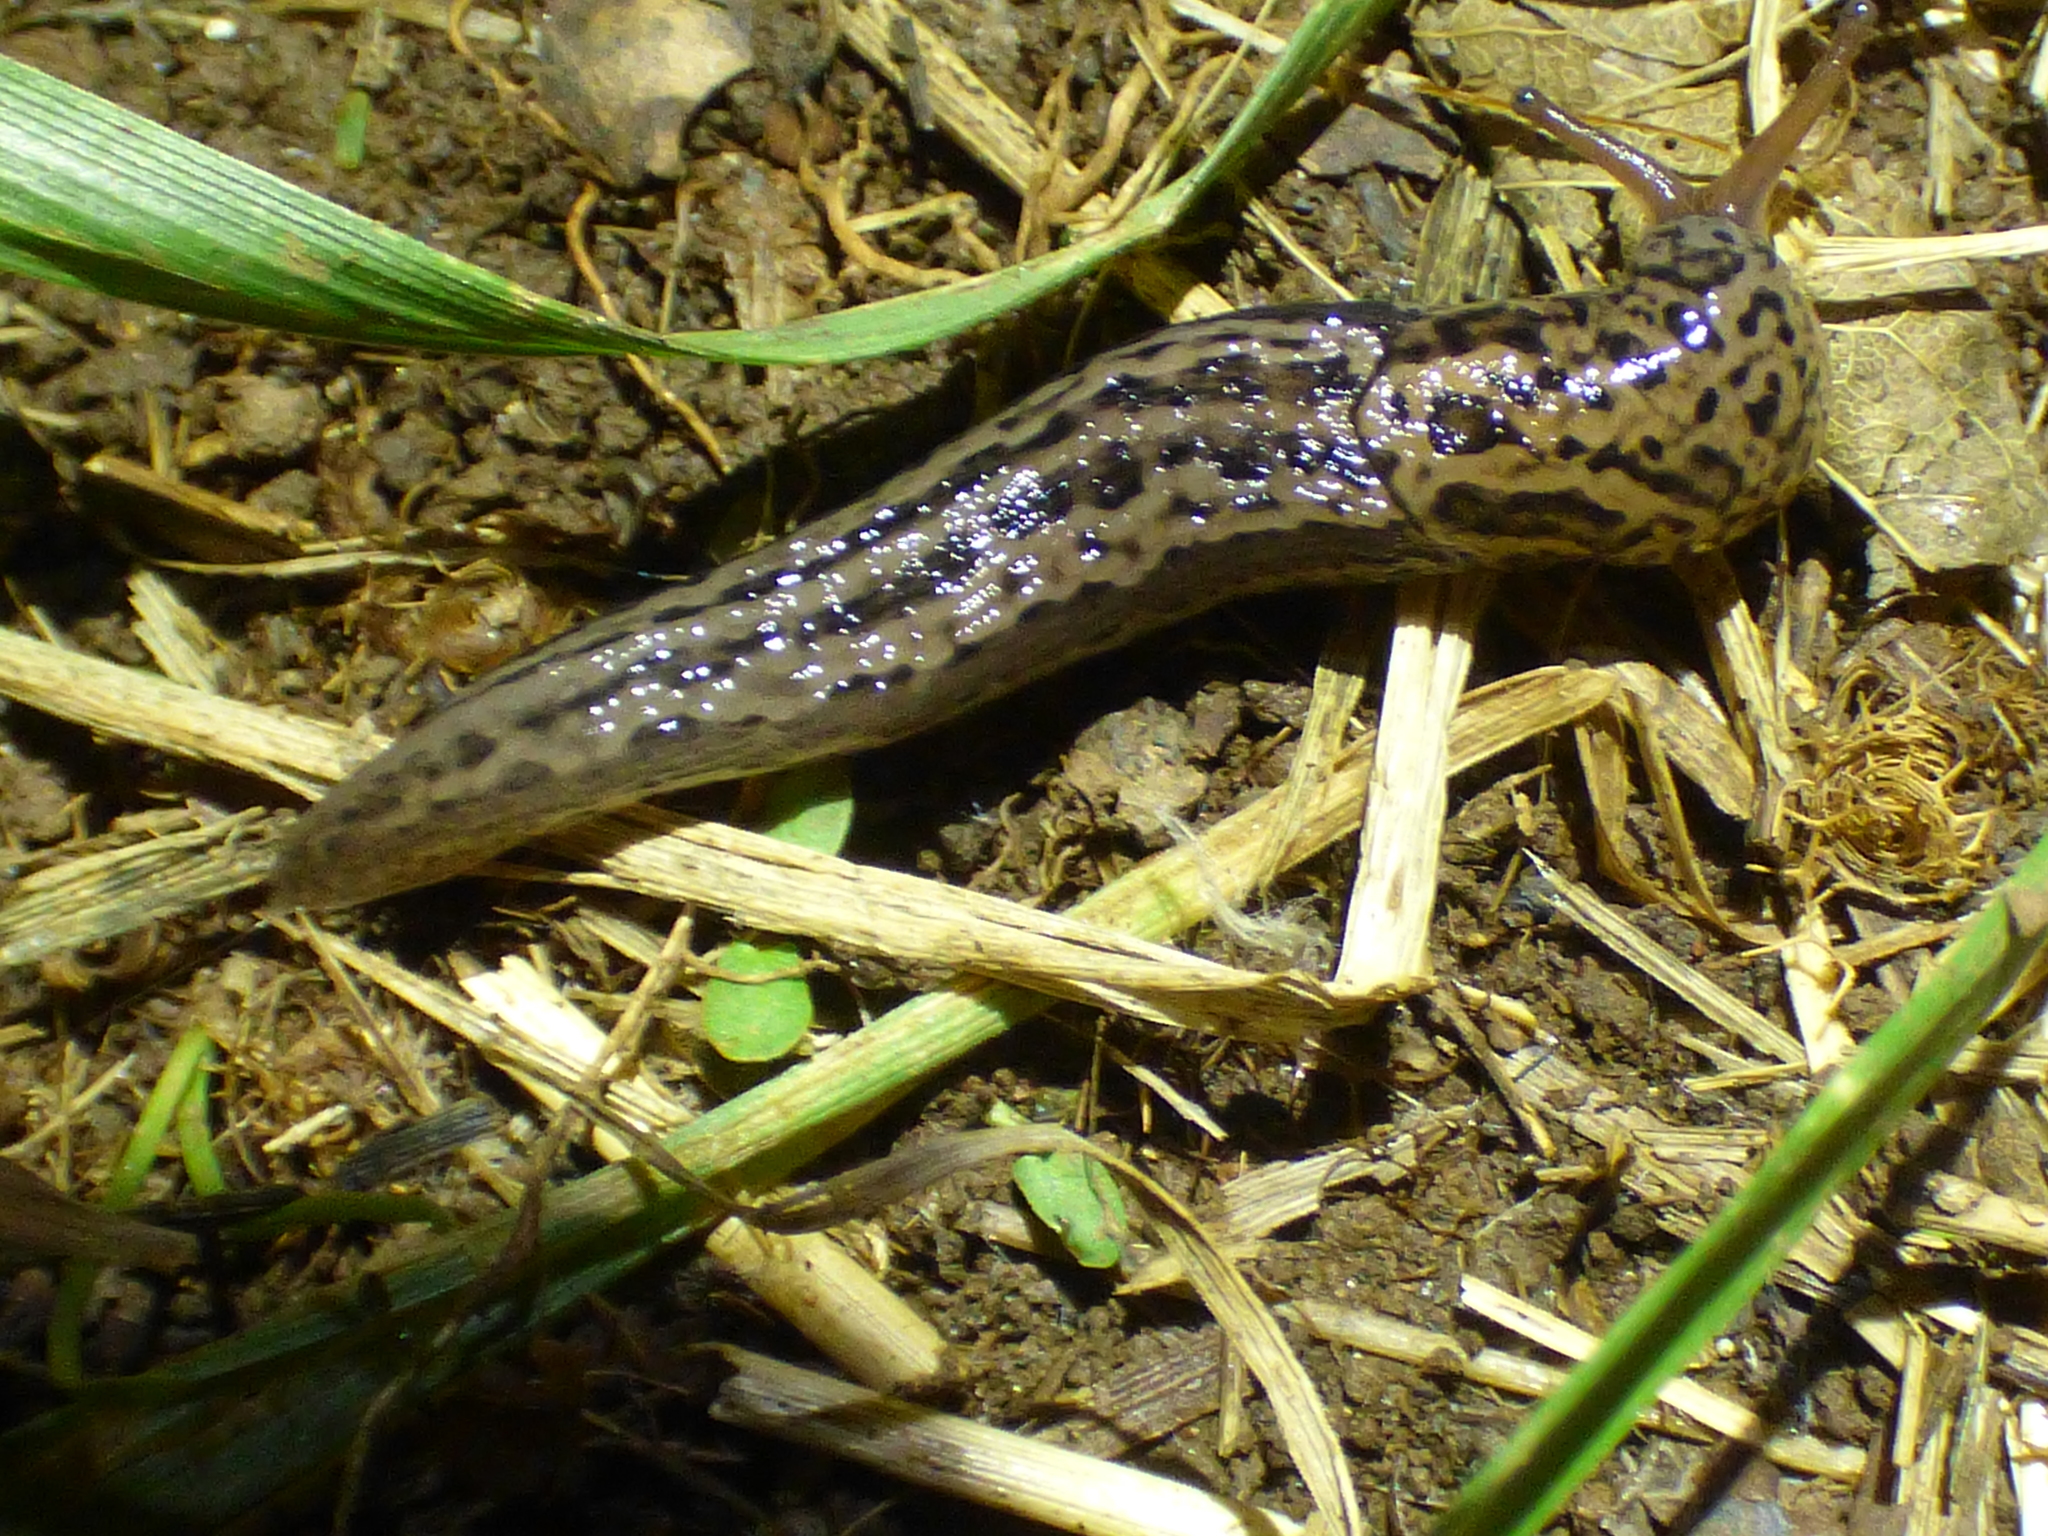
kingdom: Animalia
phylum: Mollusca
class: Gastropoda
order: Stylommatophora
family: Limacidae
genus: Limax
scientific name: Limax maximus
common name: Great grey slug
